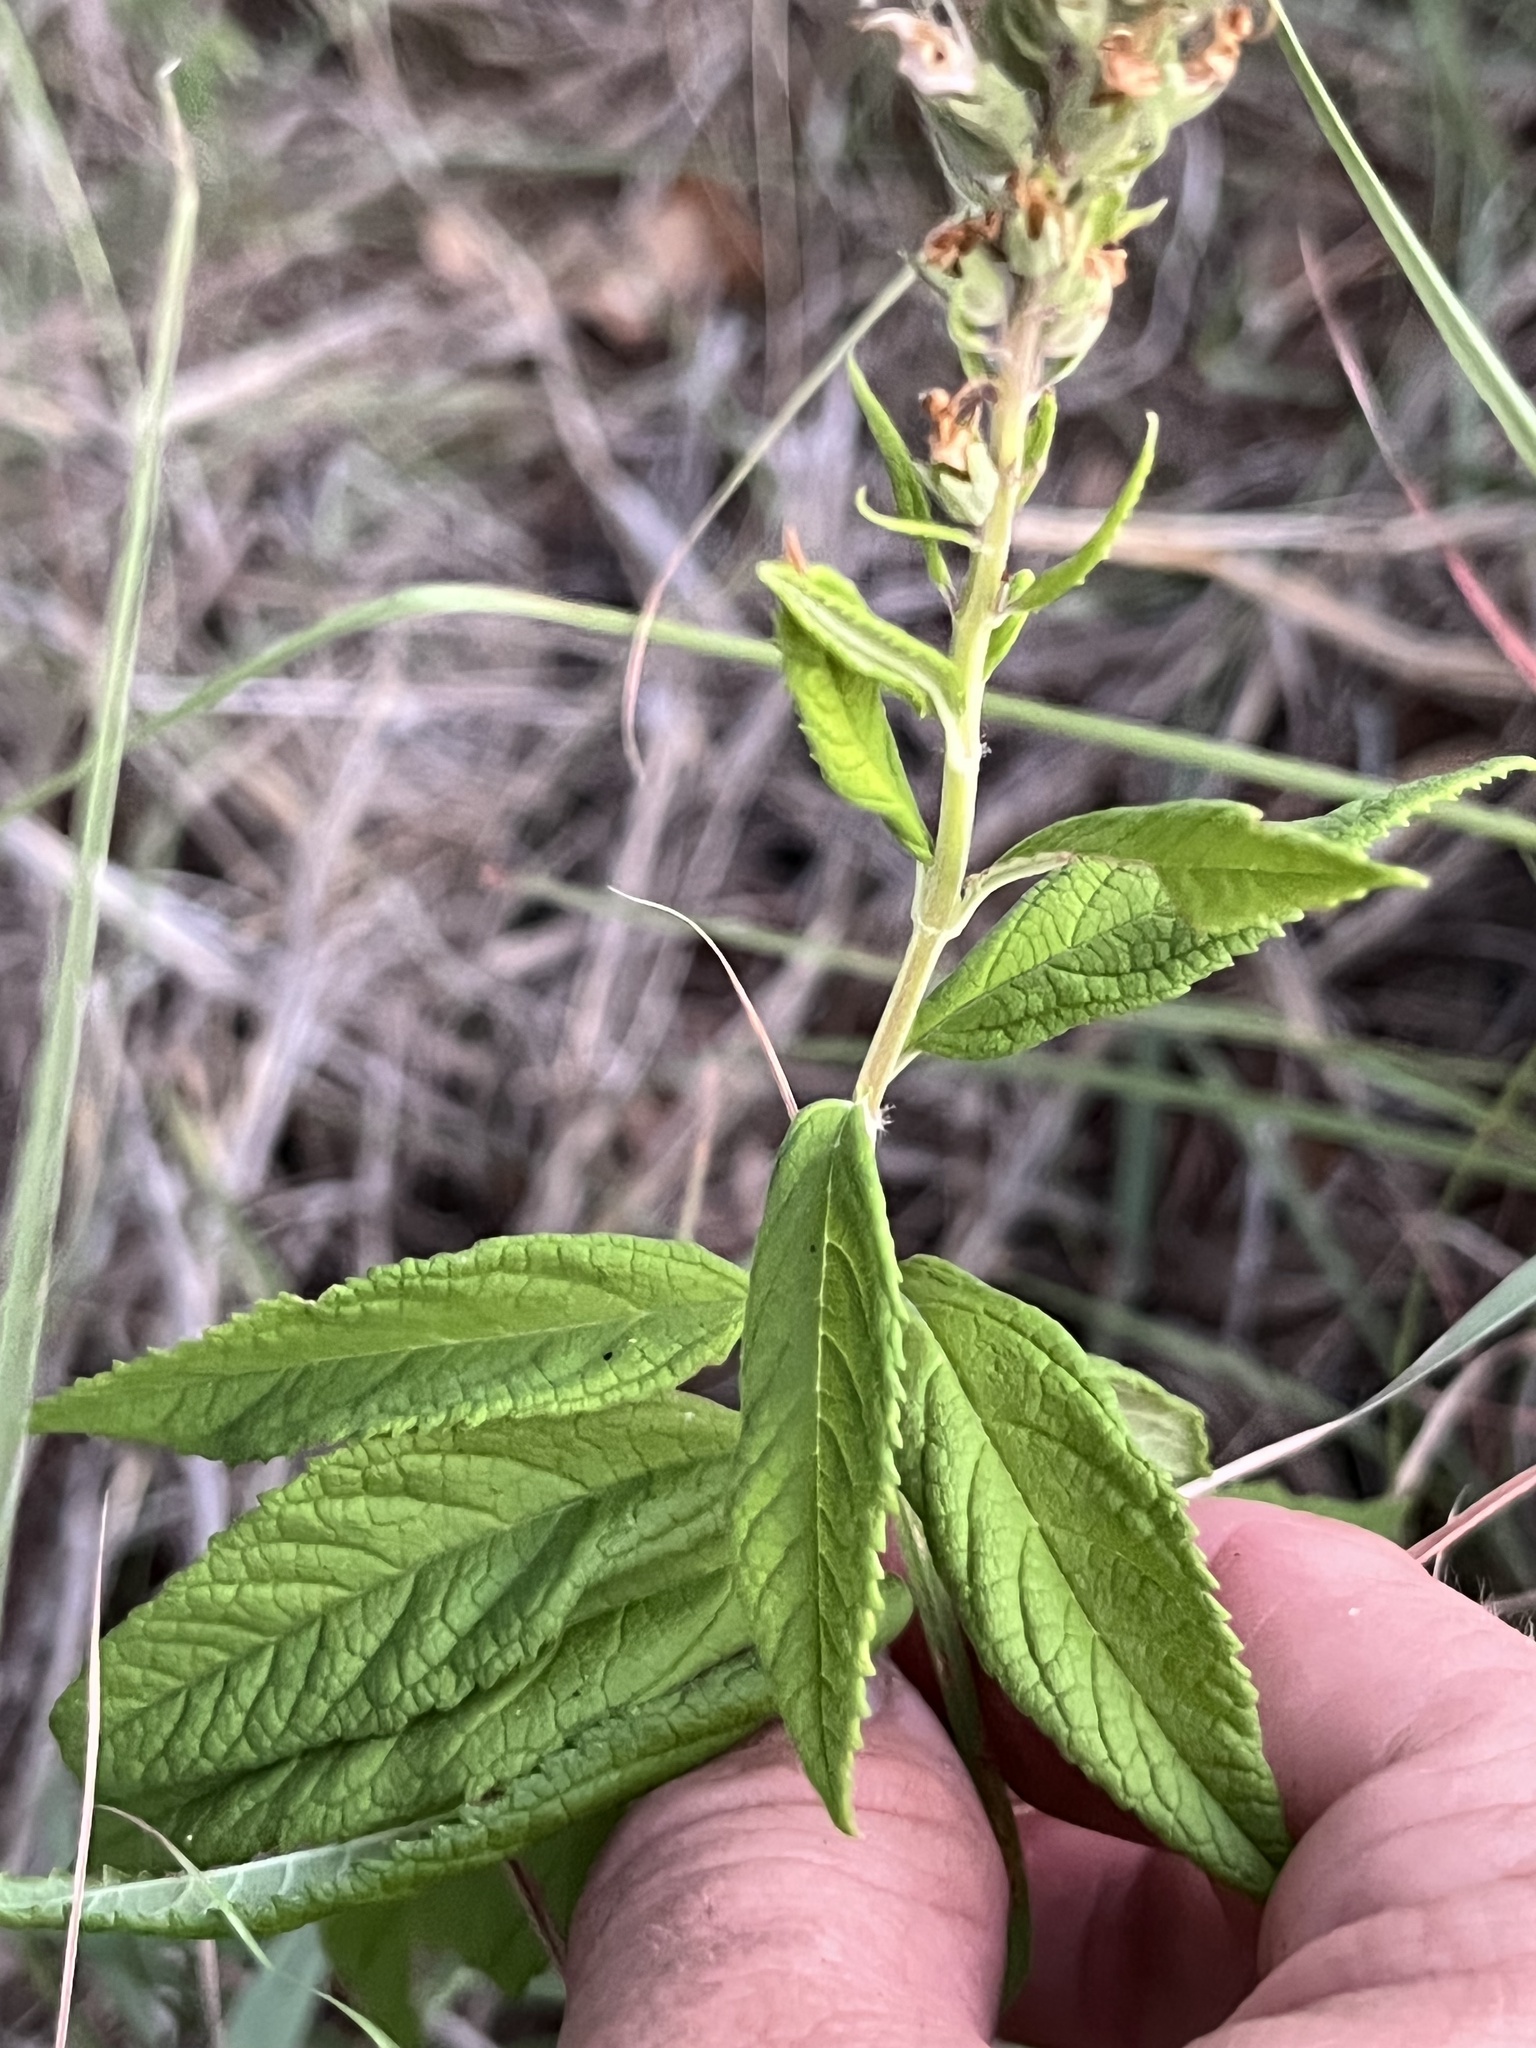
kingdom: Plantae
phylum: Tracheophyta
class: Magnoliopsida
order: Lamiales
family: Lamiaceae
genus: Teucrium
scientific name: Teucrium canadense
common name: American germander
